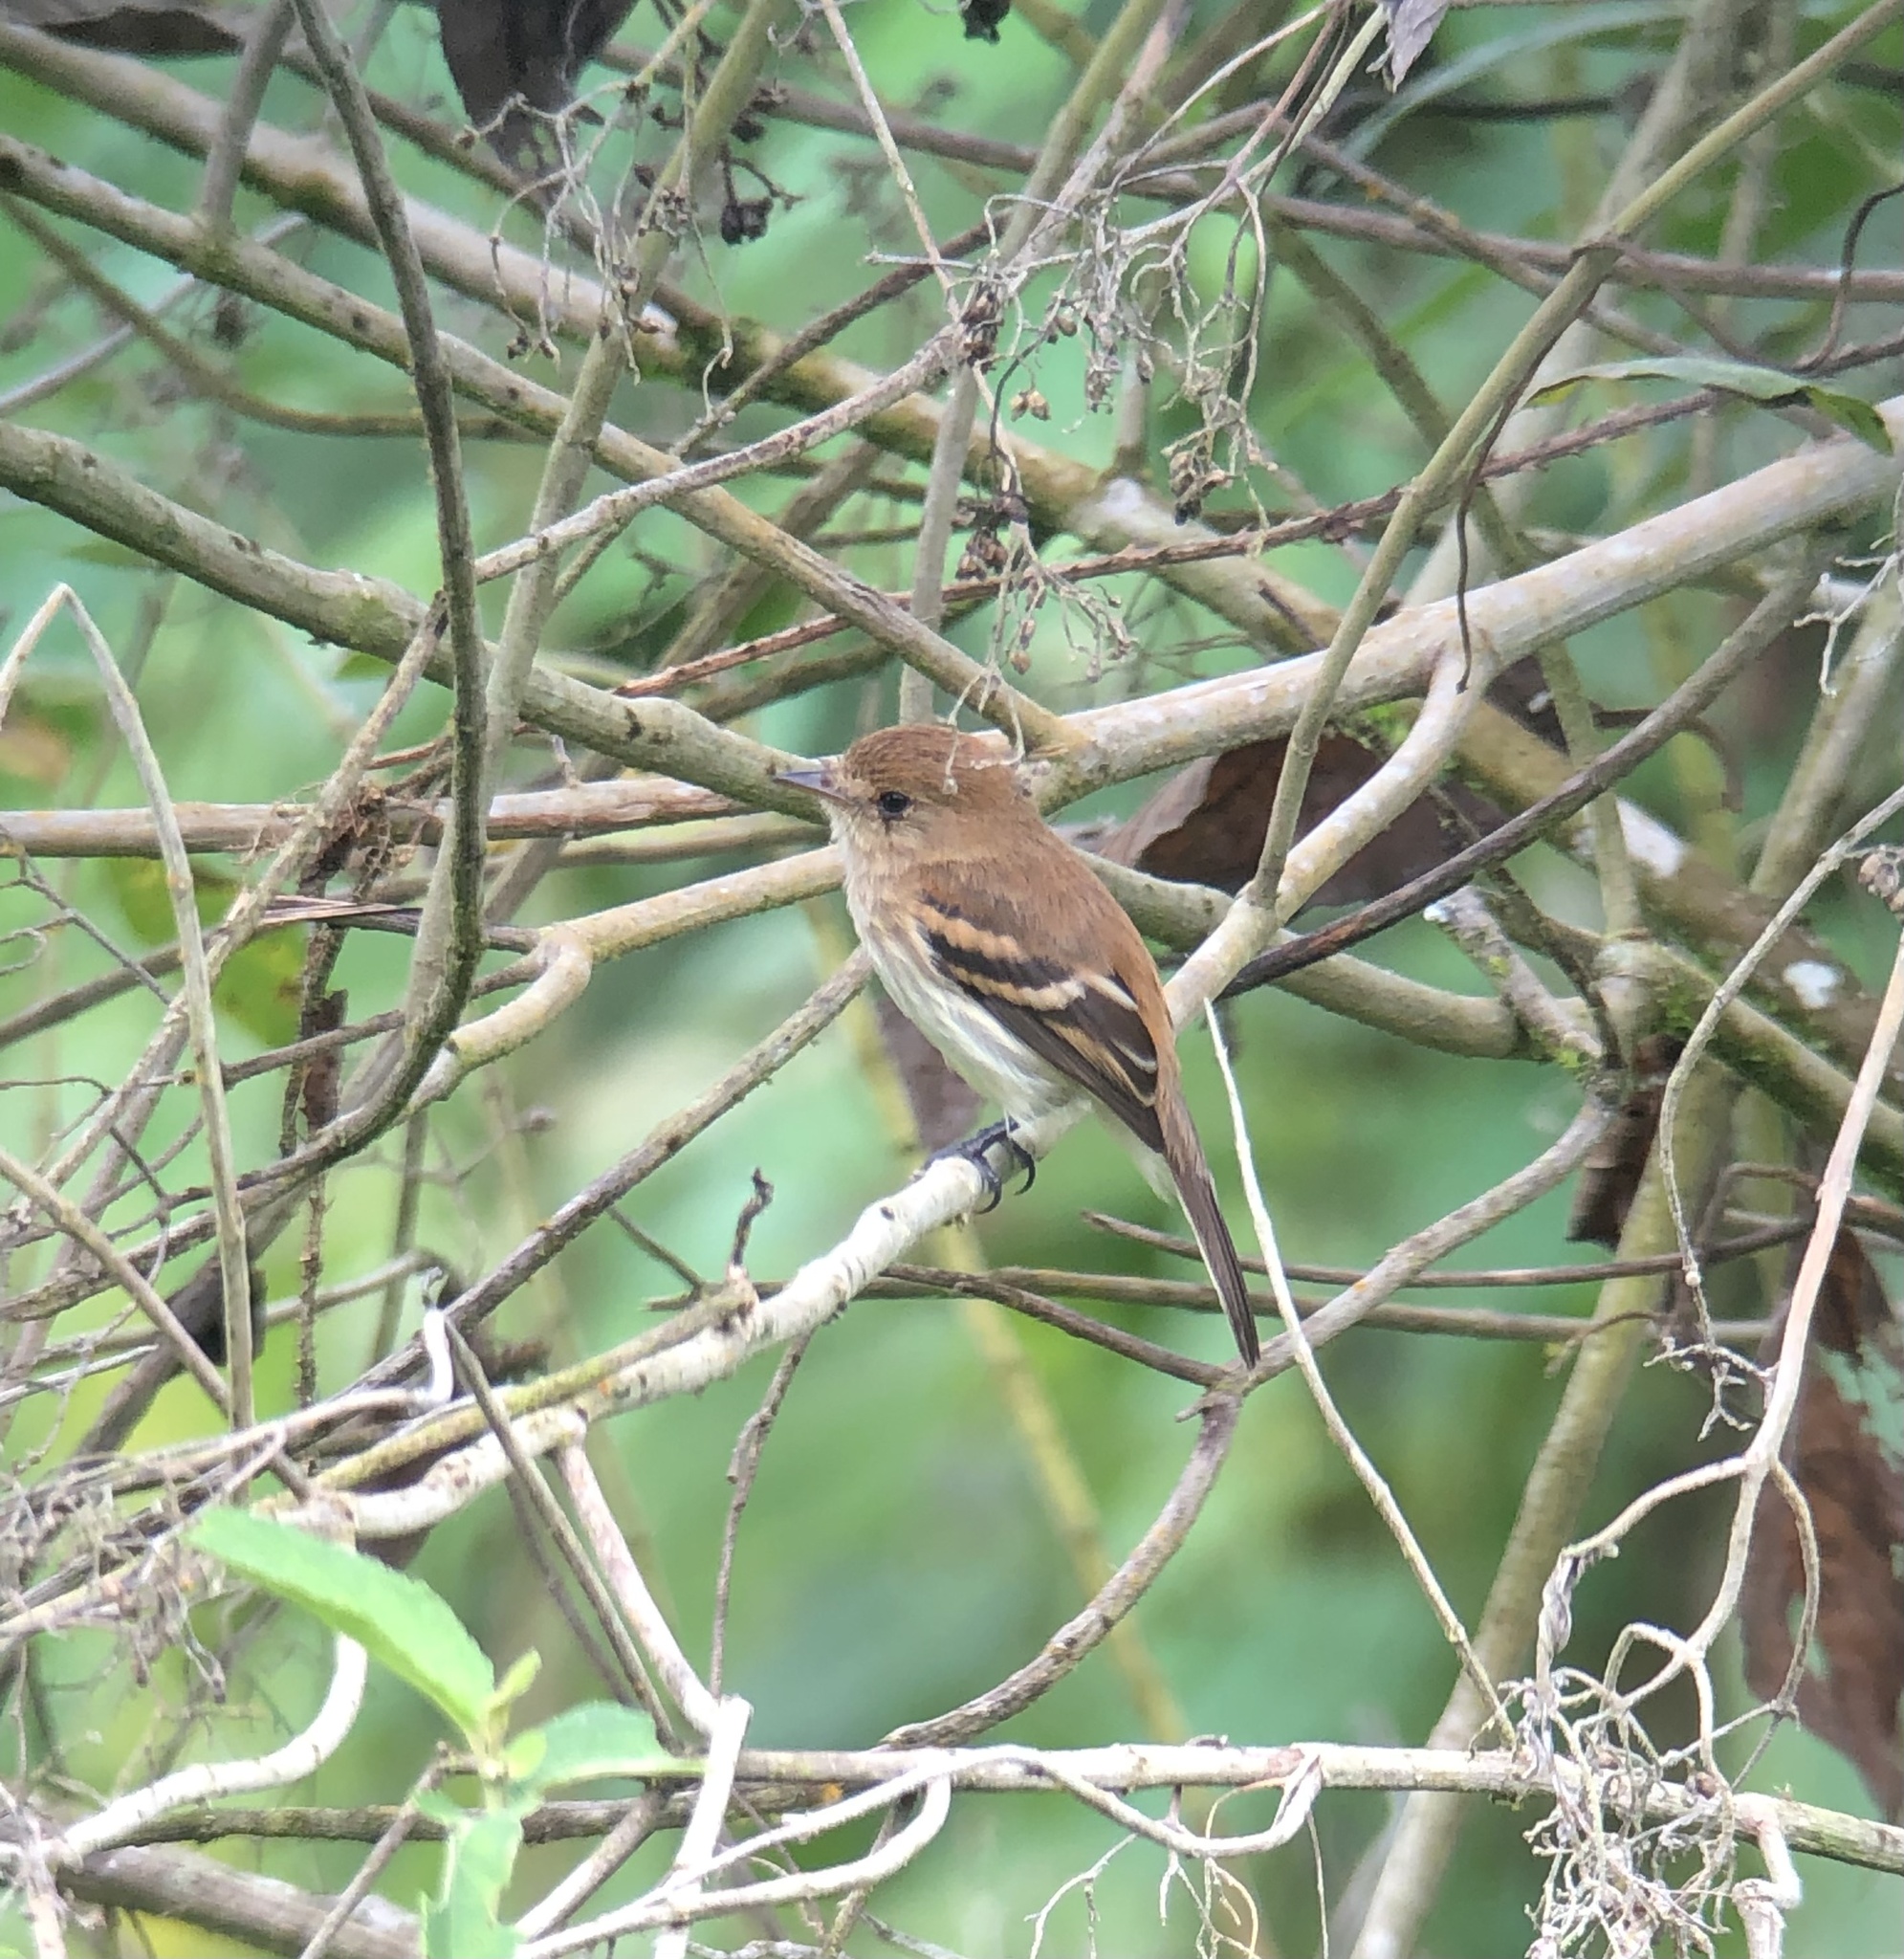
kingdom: Animalia
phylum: Chordata
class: Aves
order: Passeriformes
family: Tyrannidae
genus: Myiophobus
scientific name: Myiophobus fasciatus
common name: Bran-colored flycatcher
